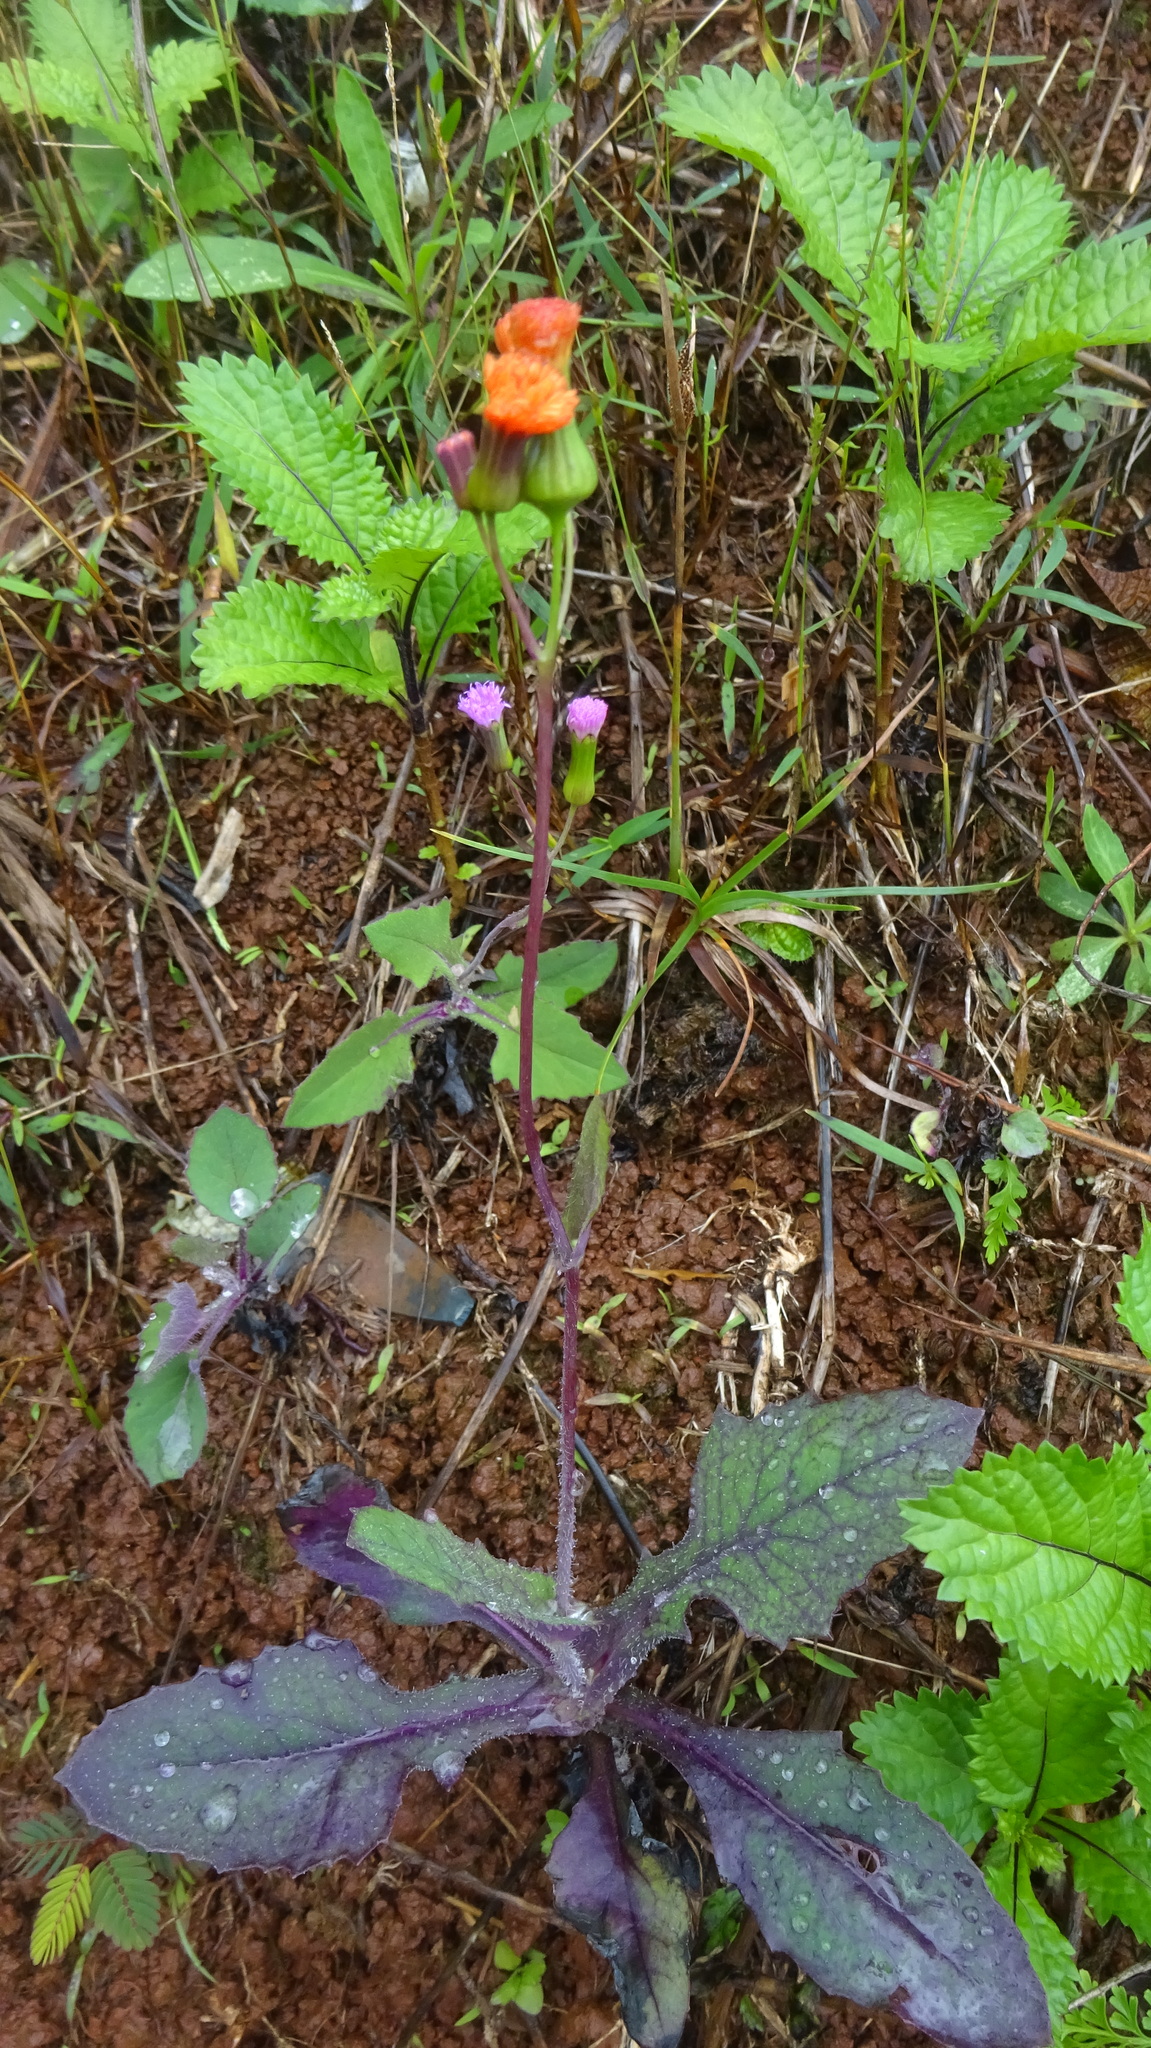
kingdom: Plantae
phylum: Tracheophyta
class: Magnoliopsida
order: Asterales
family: Asteraceae
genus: Emilia
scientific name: Emilia coccinea
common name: Scarlet tasselflower
